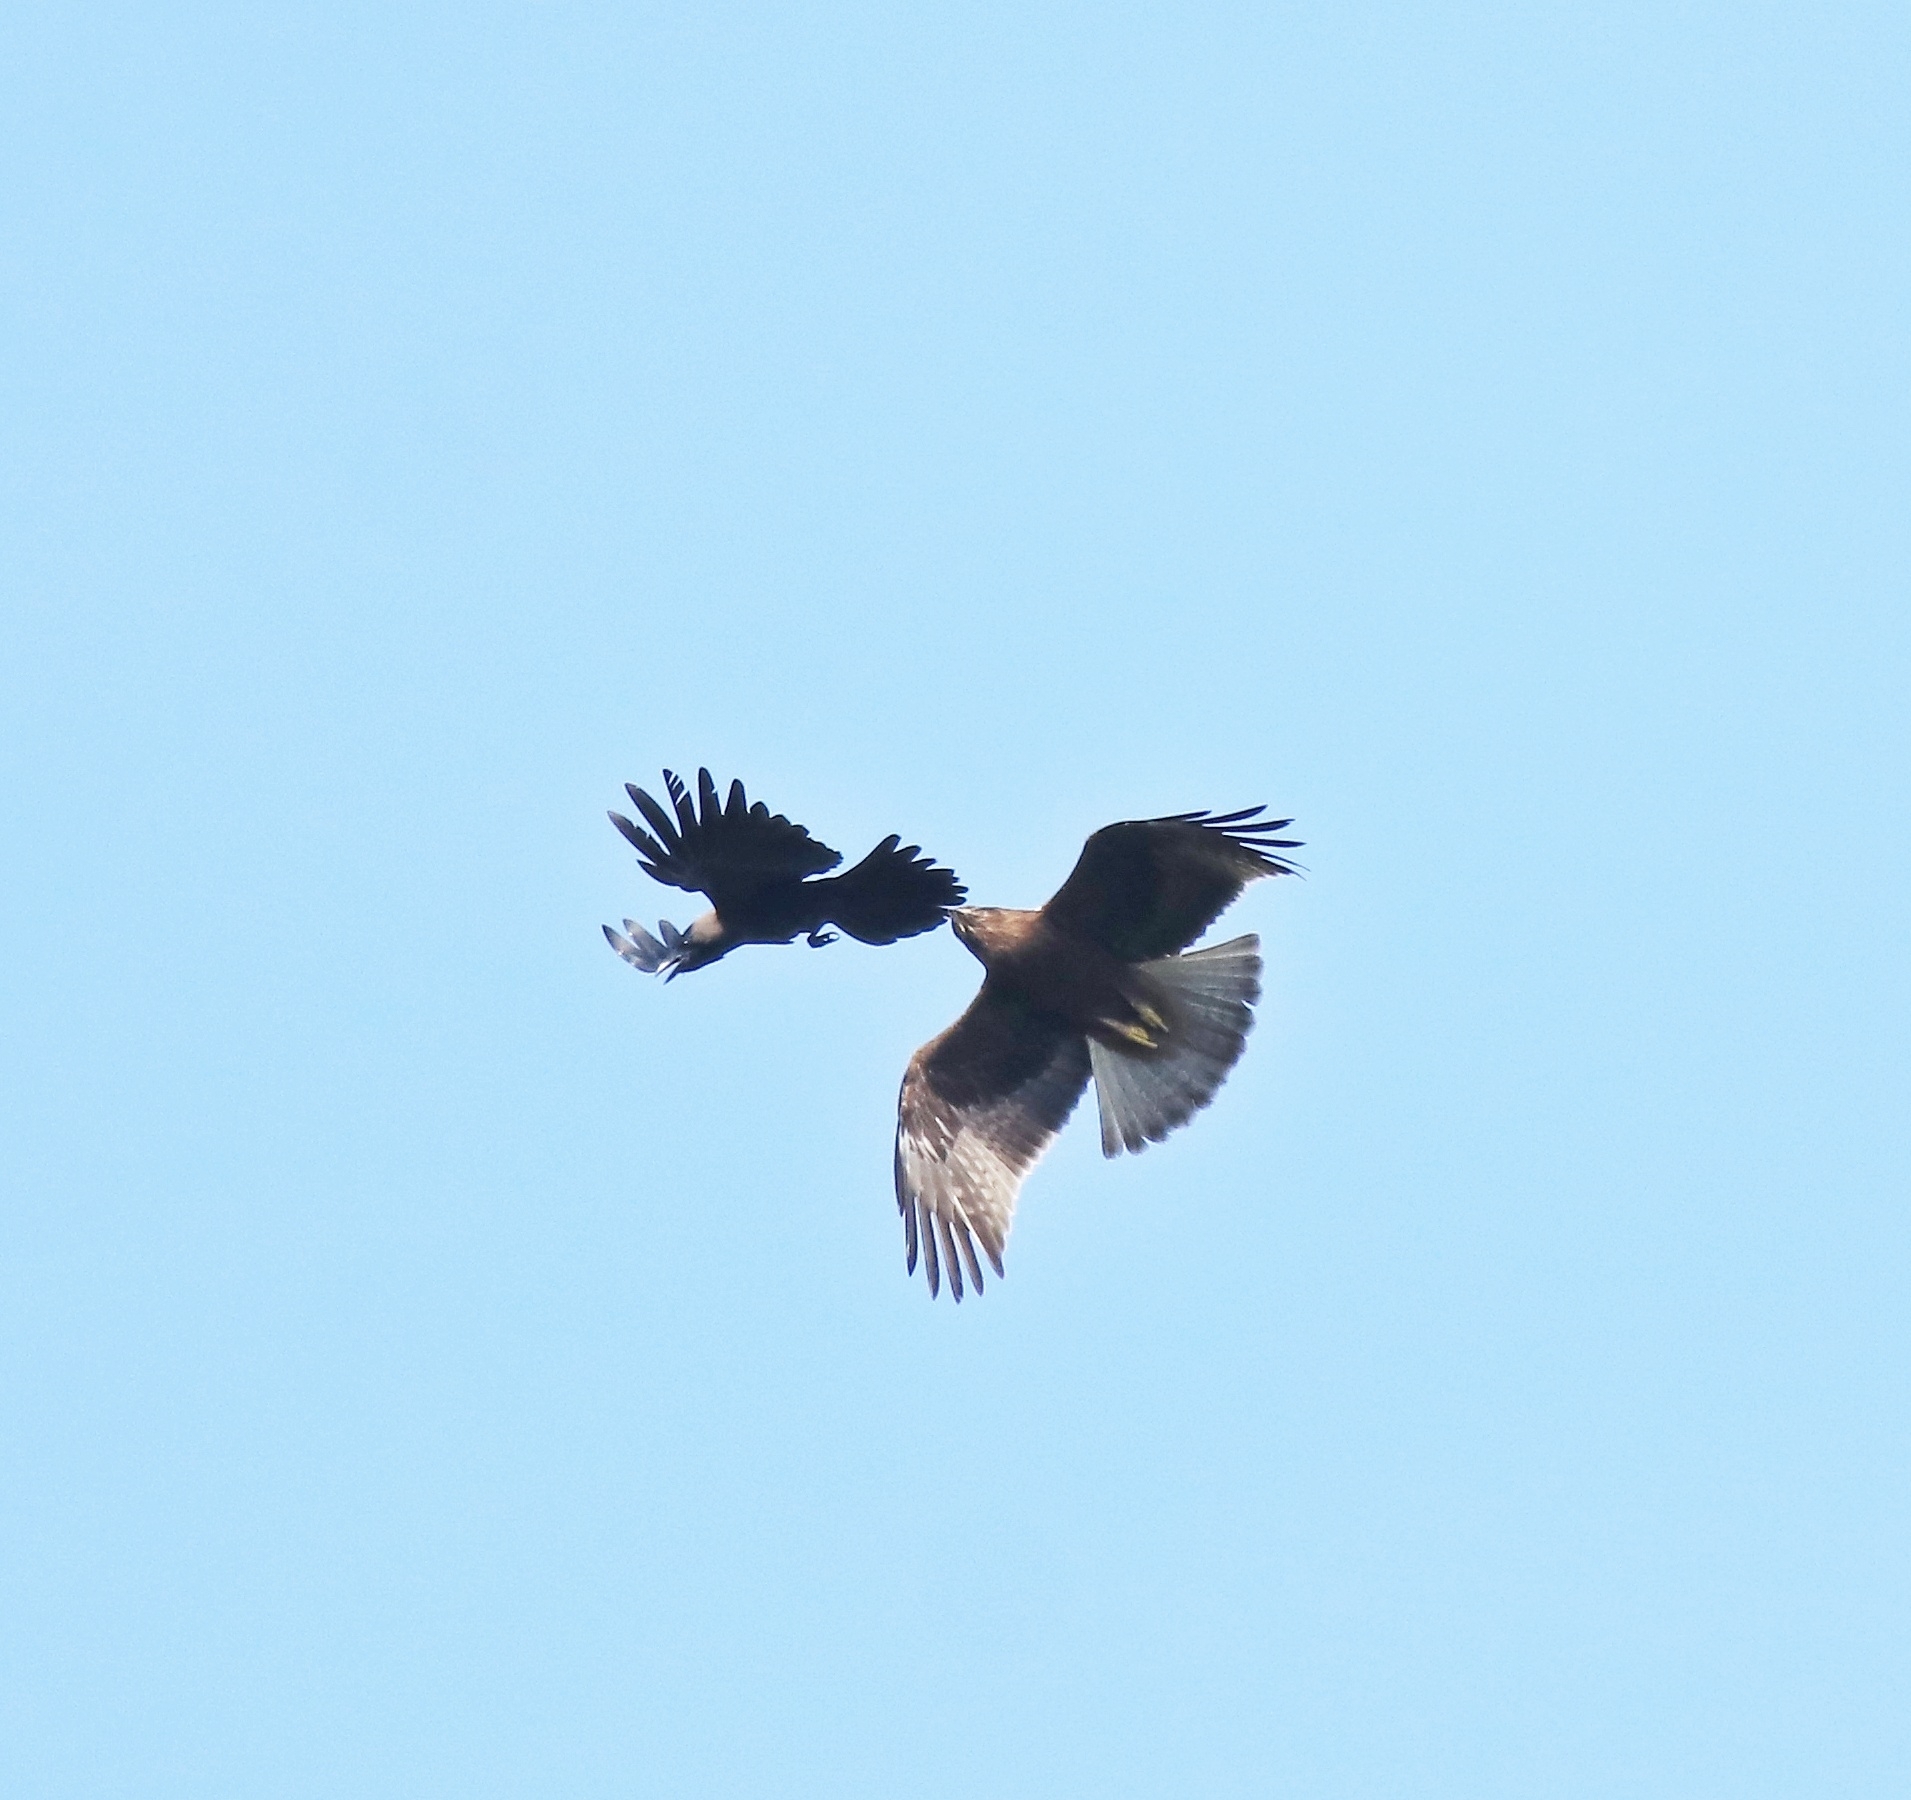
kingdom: Animalia
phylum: Chordata
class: Aves
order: Accipitriformes
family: Accipitridae
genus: Hieraaetus
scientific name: Hieraaetus pennatus
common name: Booted eagle
